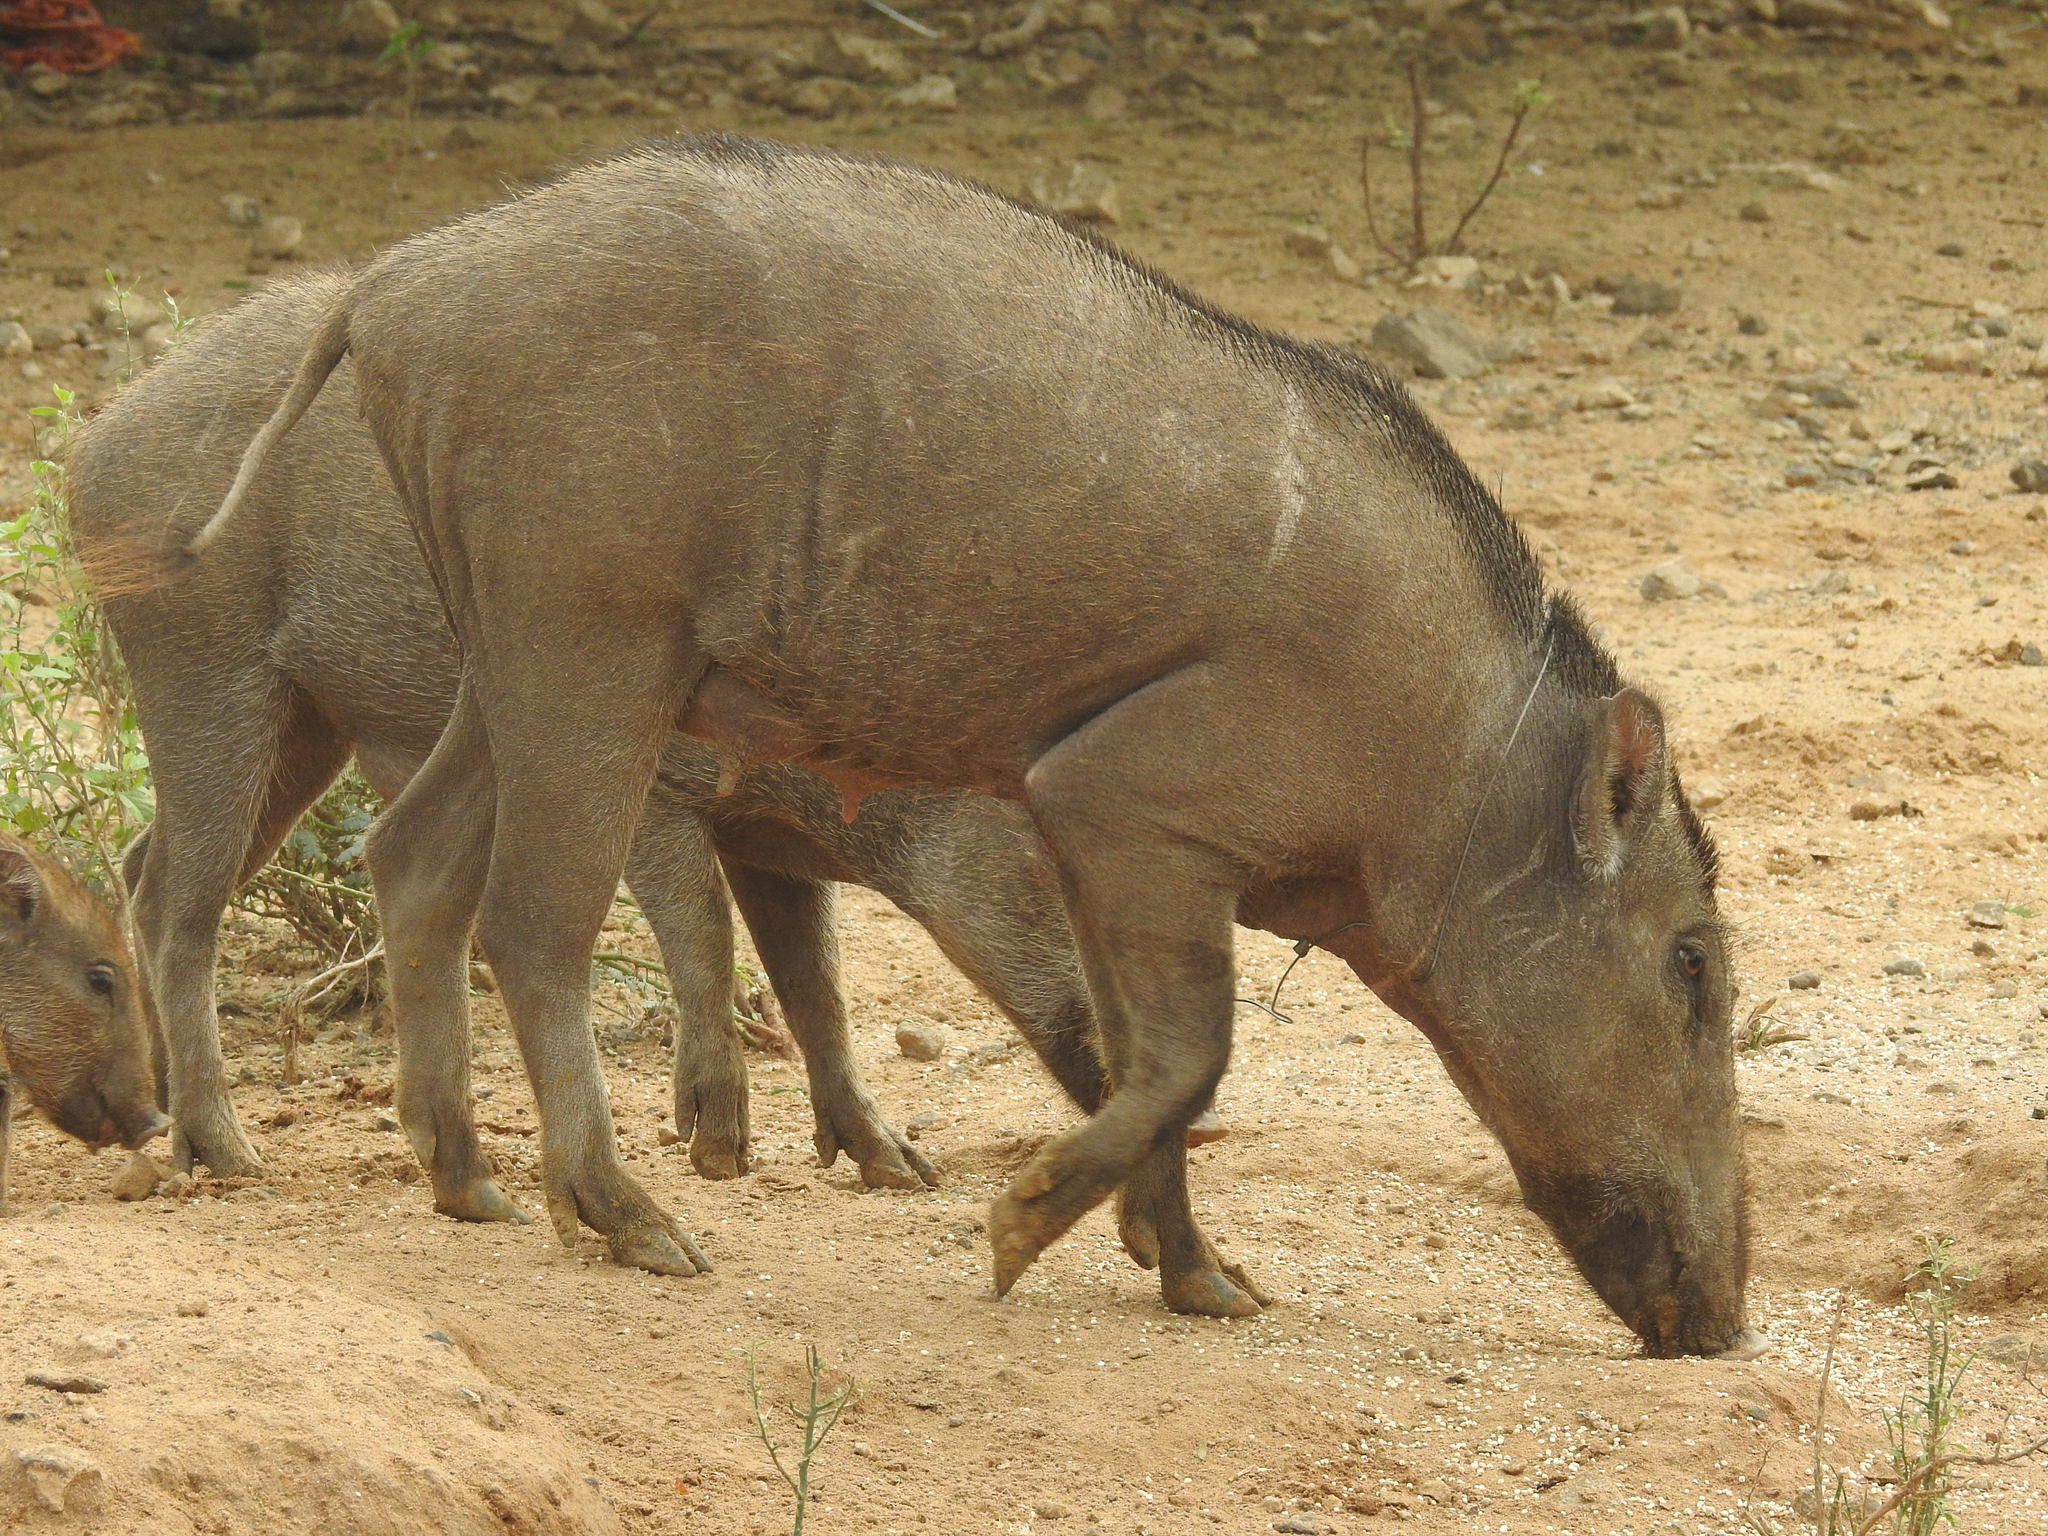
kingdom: Animalia
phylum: Chordata
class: Mammalia
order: Artiodactyla
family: Suidae
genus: Sus
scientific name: Sus scrofa
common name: Wild boar
